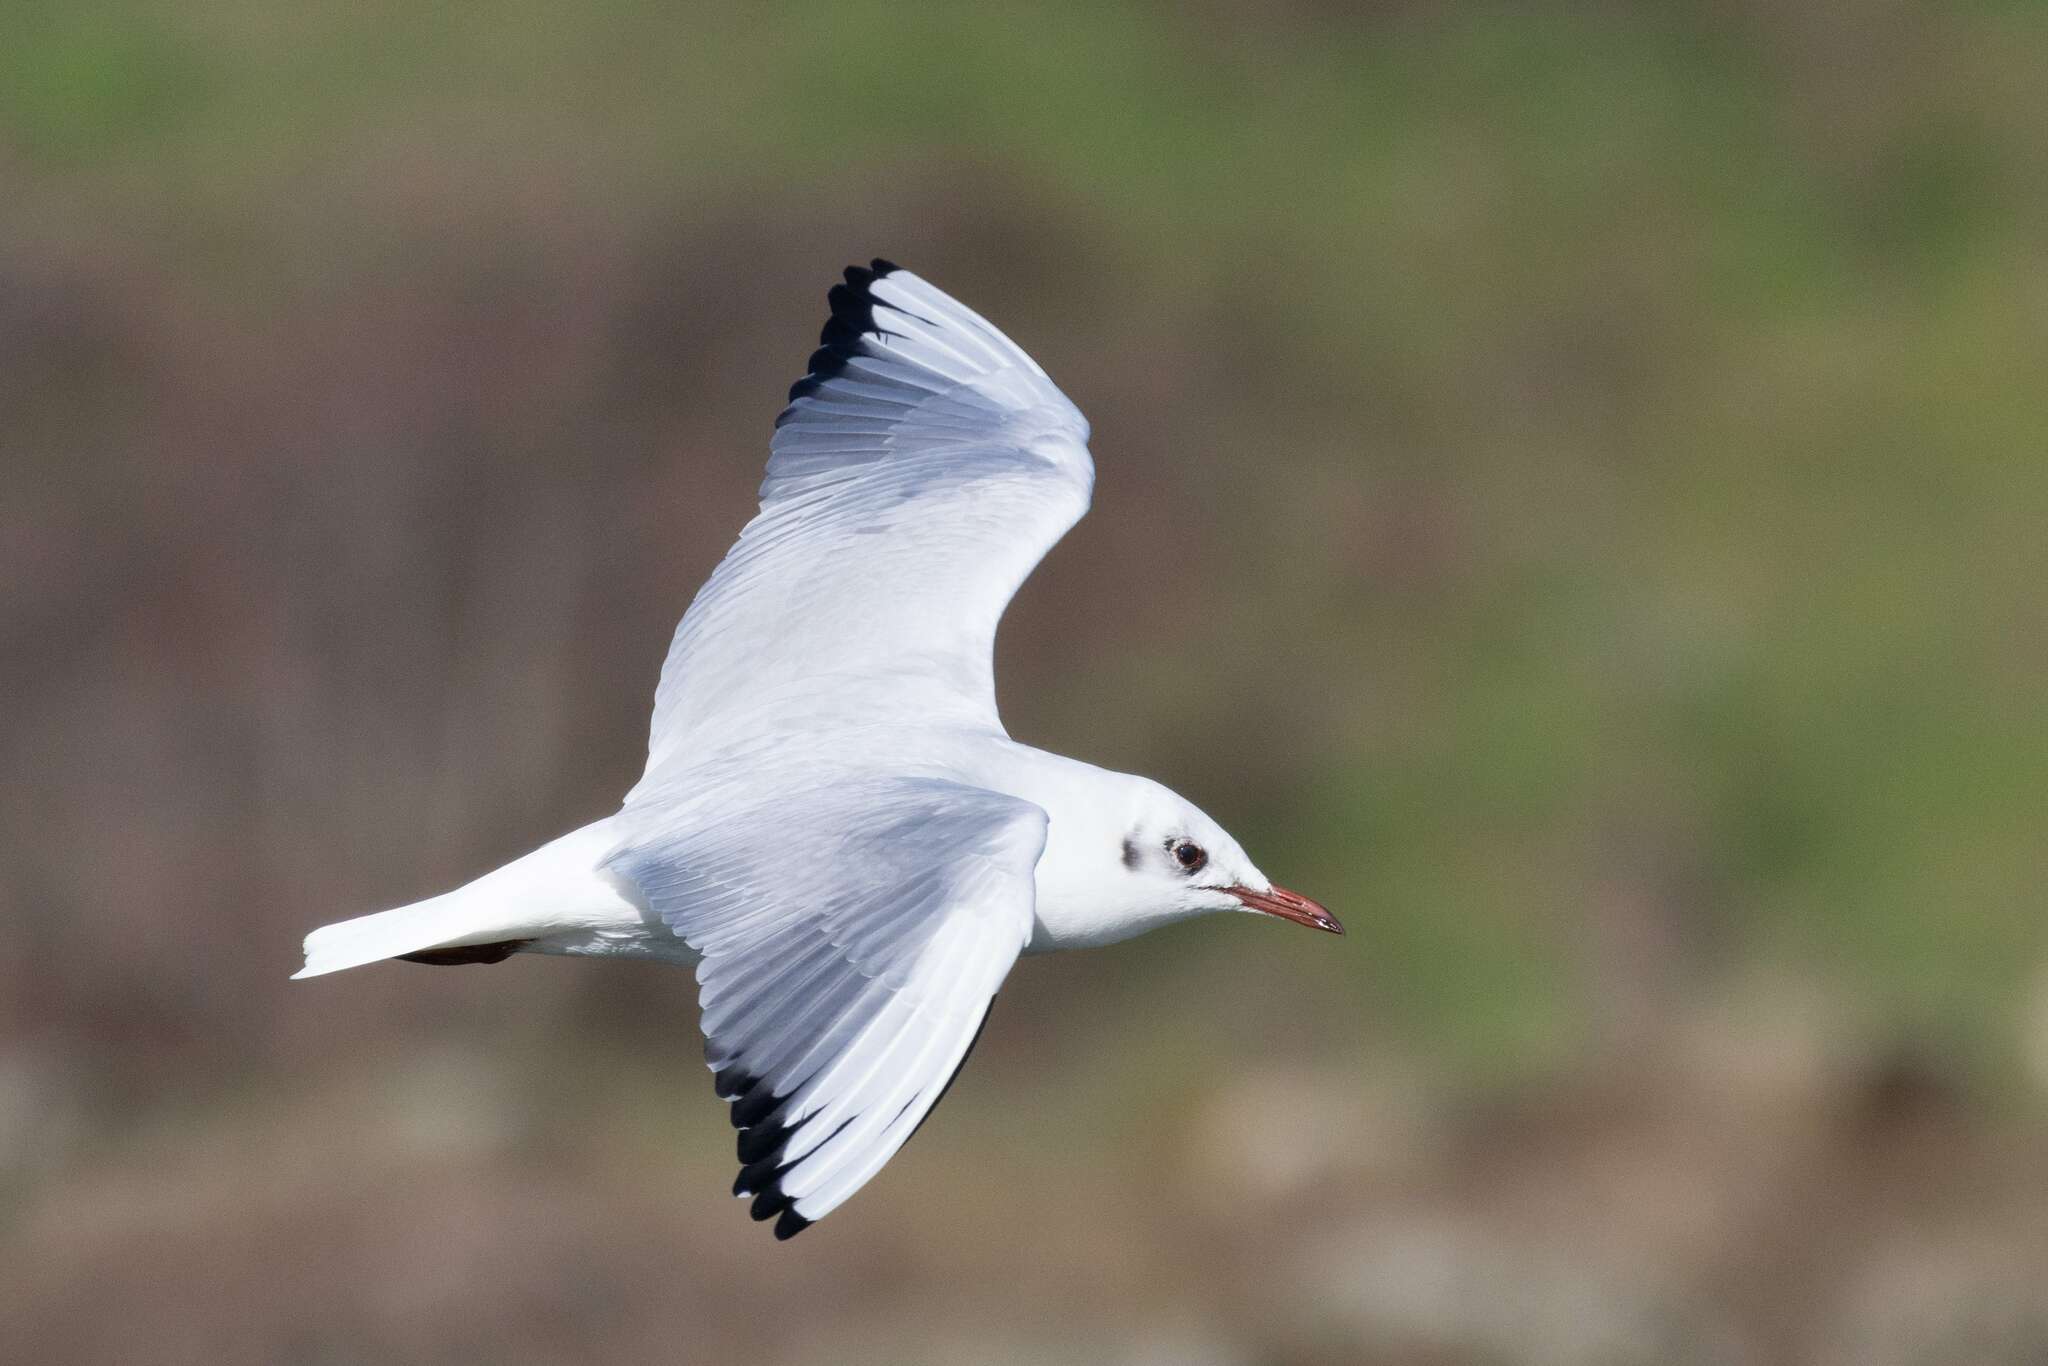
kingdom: Animalia
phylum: Chordata
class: Aves
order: Charadriiformes
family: Laridae
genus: Chroicocephalus
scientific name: Chroicocephalus ridibundus
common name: Black-headed gull
